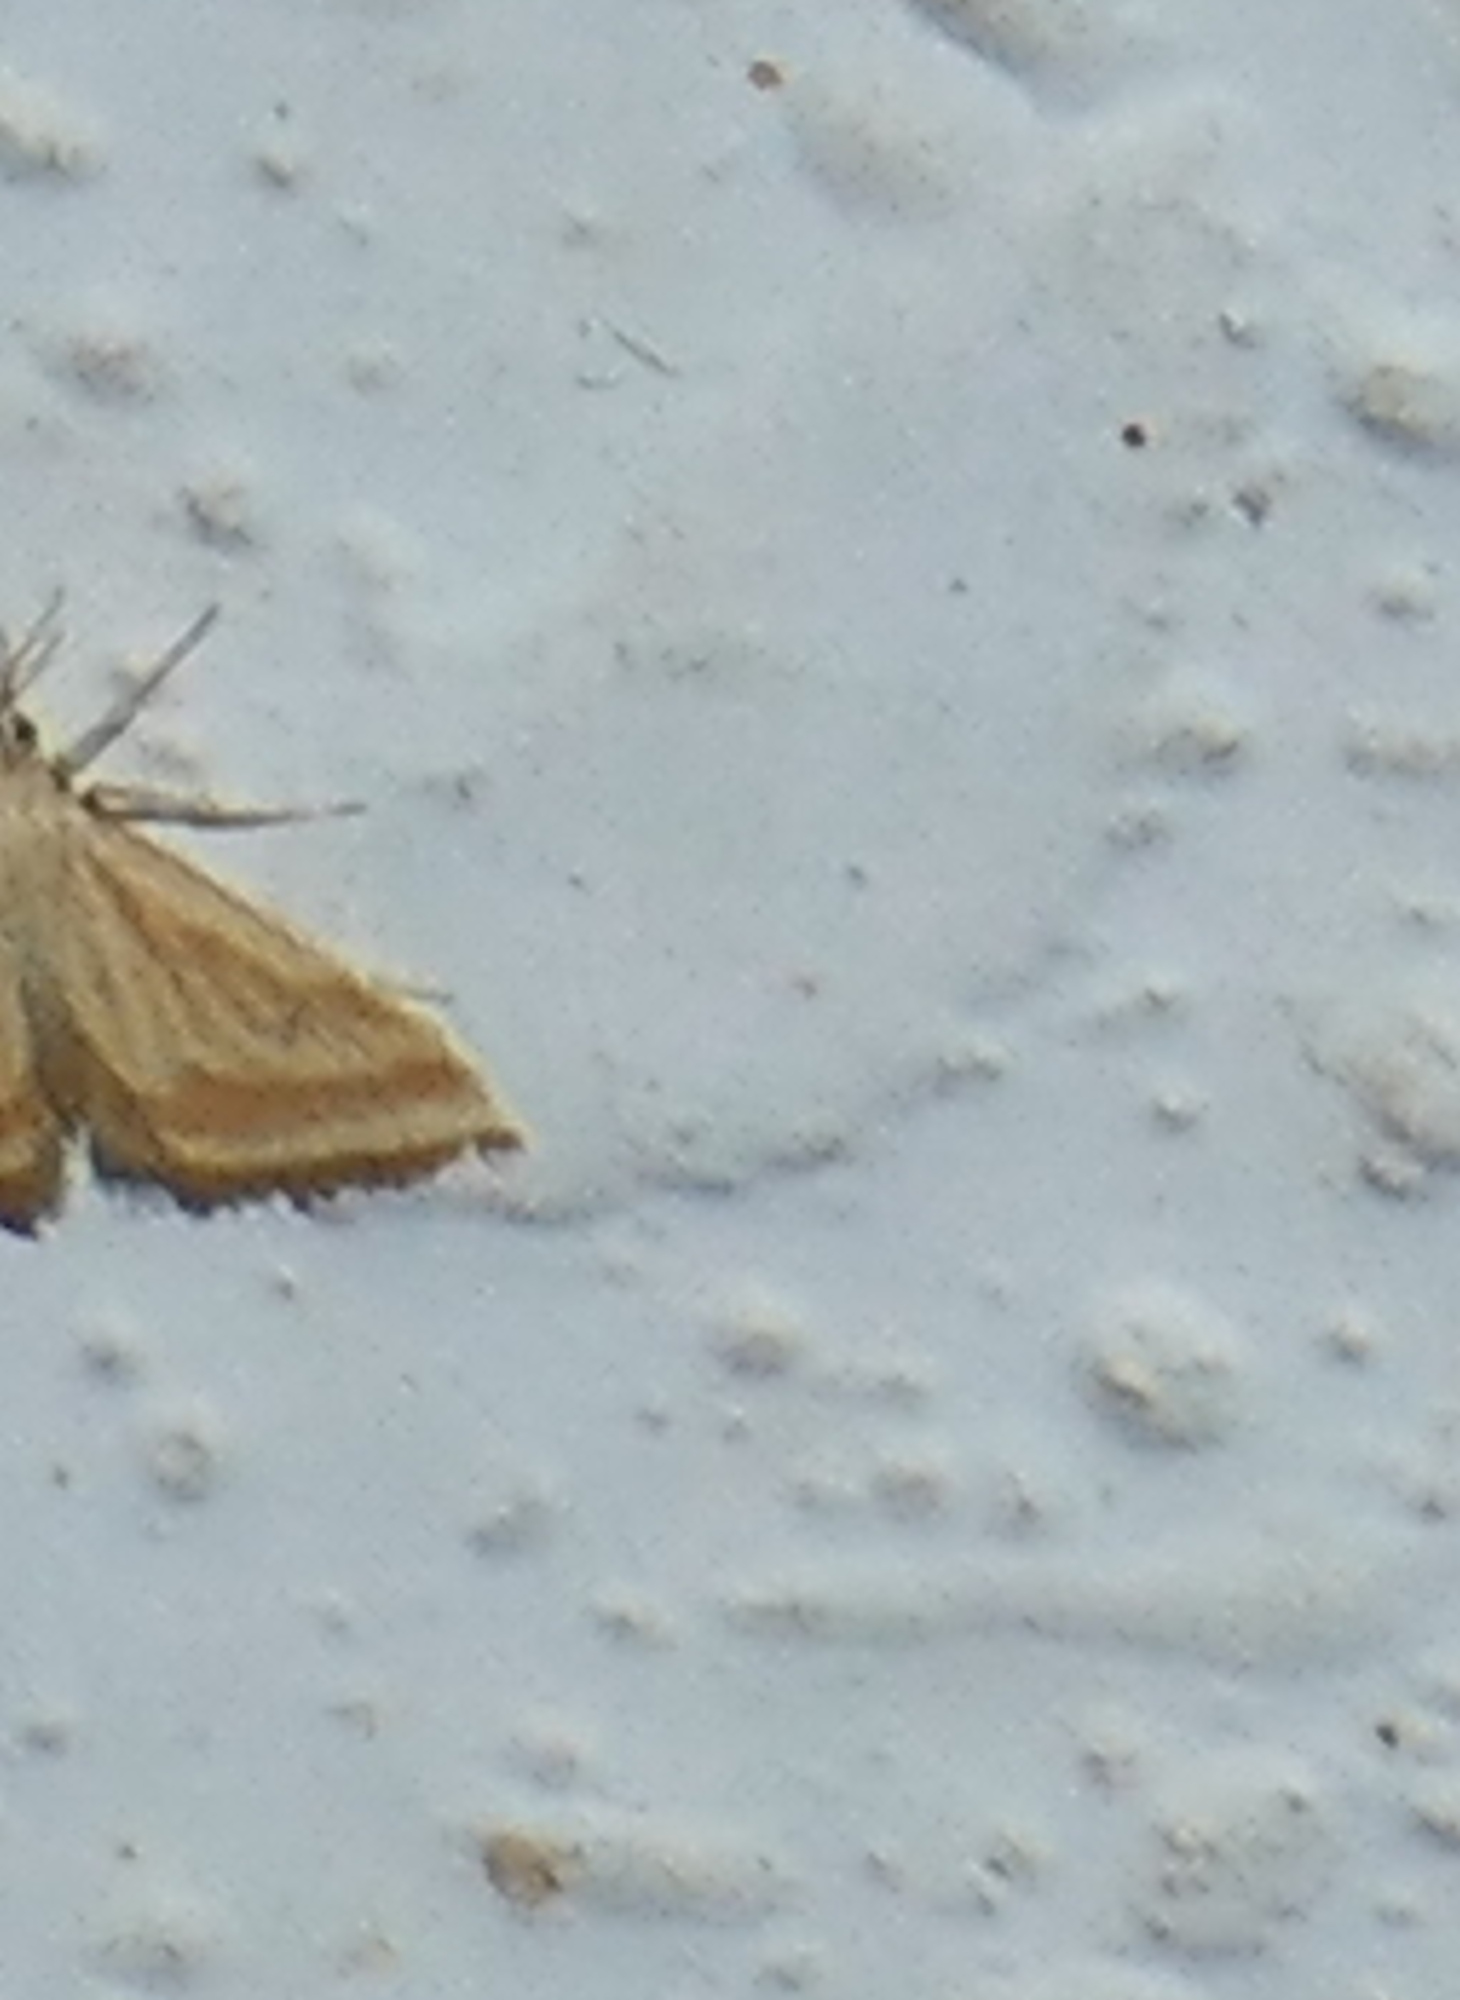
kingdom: Animalia
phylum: Arthropoda
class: Insecta
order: Lepidoptera
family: Crambidae
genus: Microtheoris
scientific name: Microtheoris ophionalis
